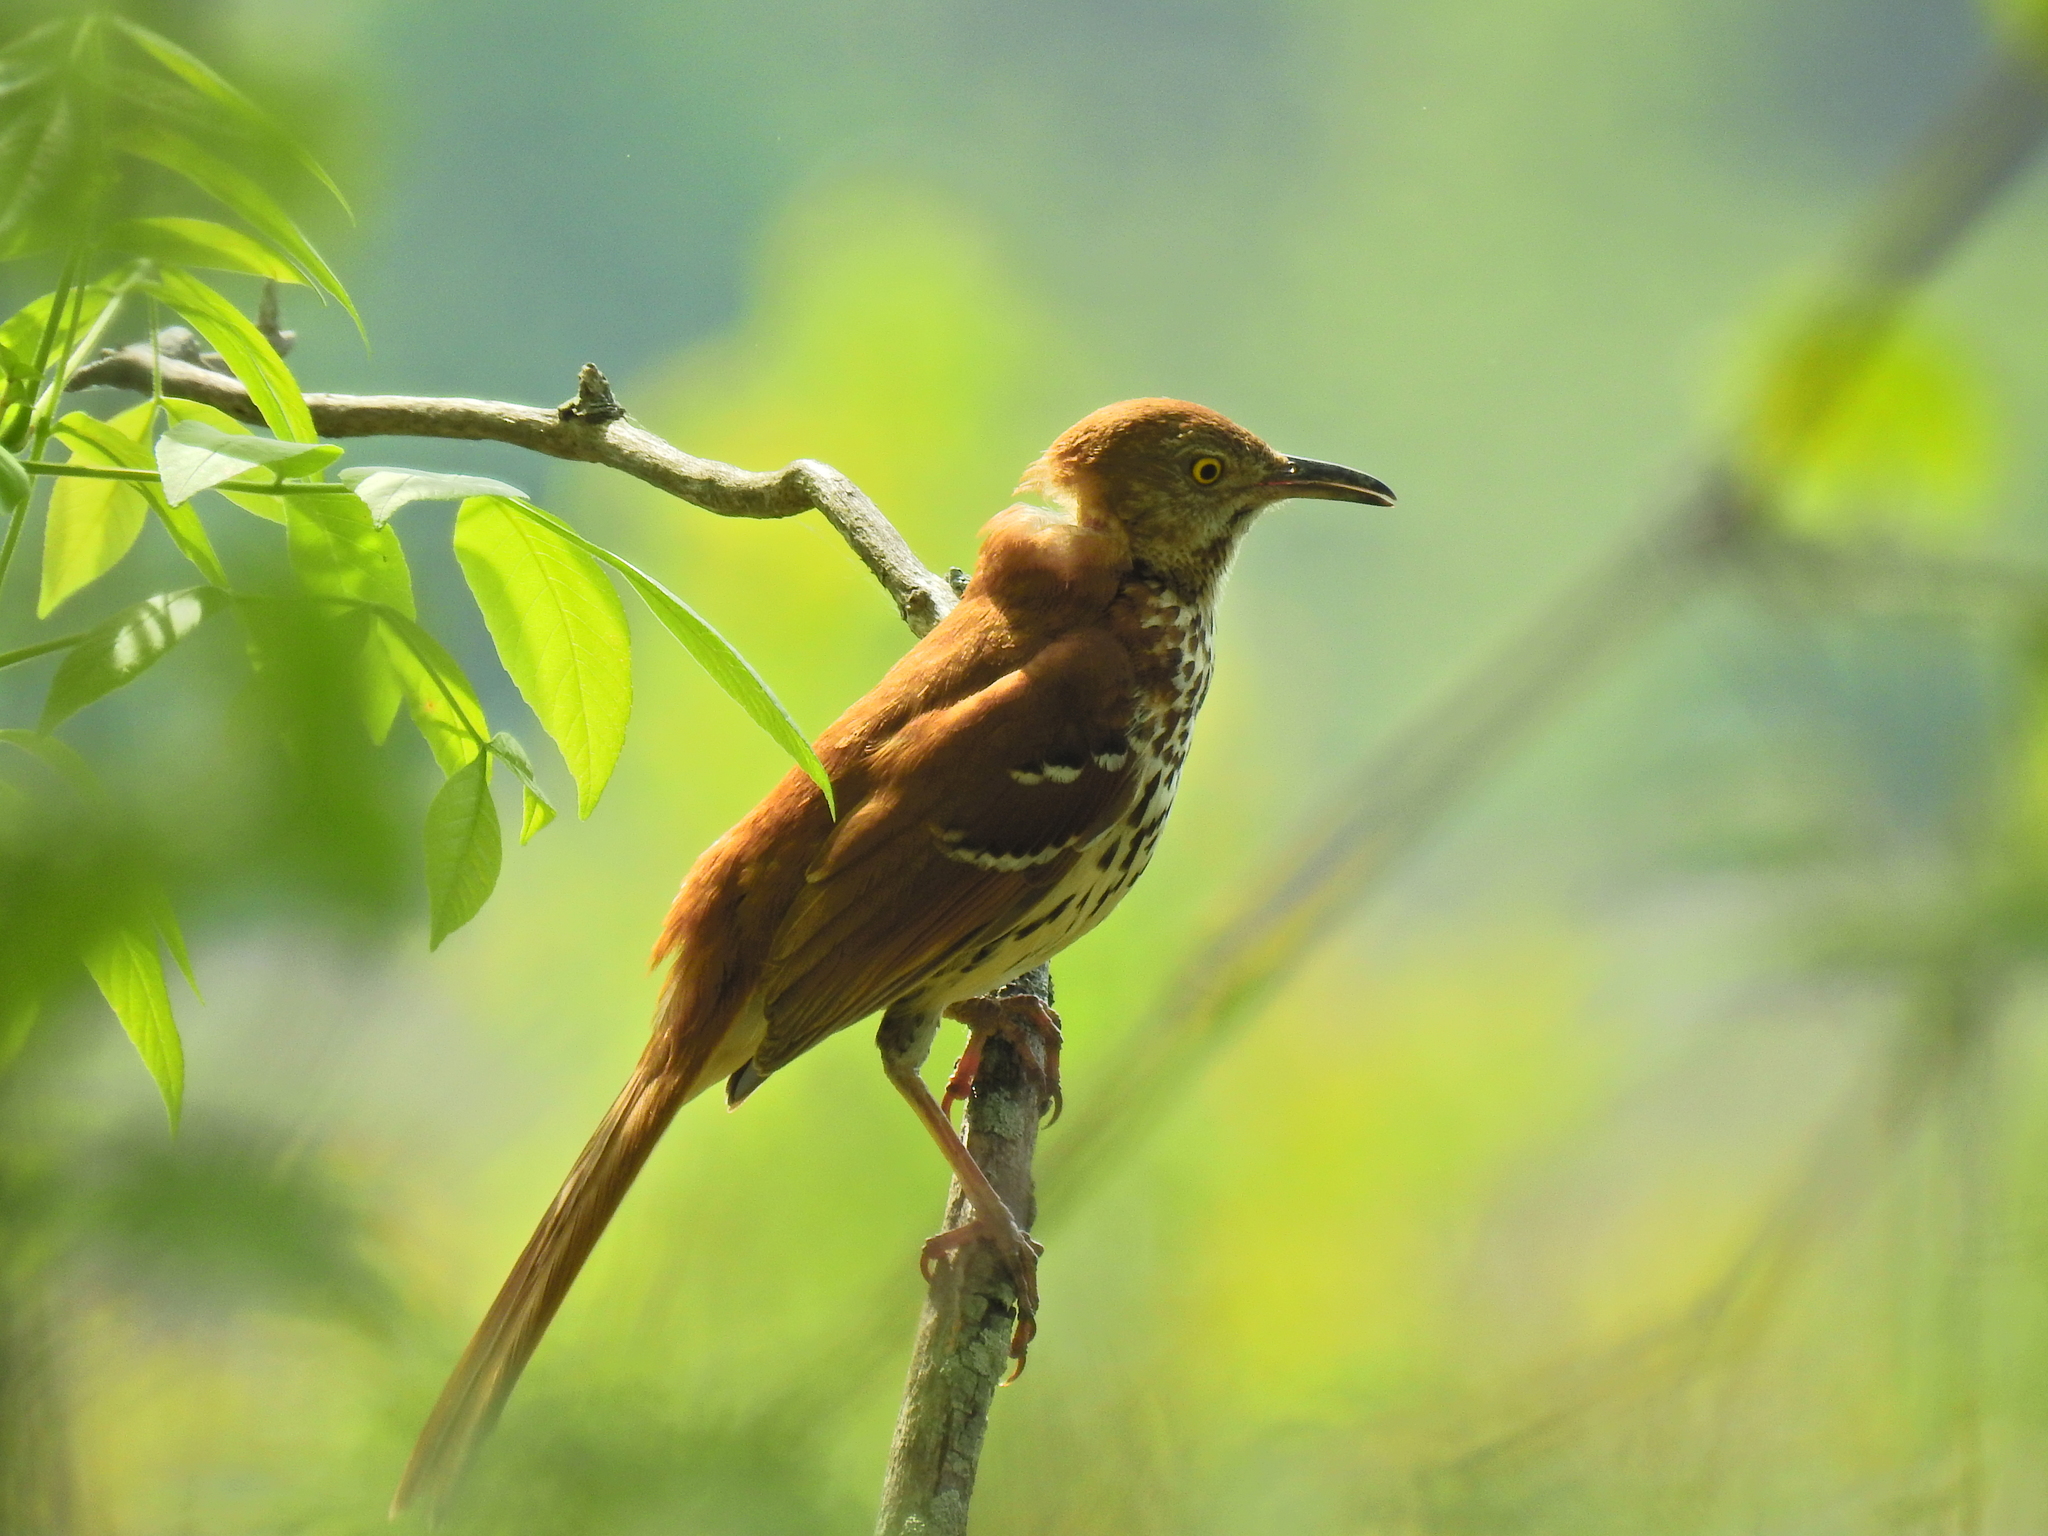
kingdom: Animalia
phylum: Chordata
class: Aves
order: Passeriformes
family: Mimidae
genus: Toxostoma
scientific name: Toxostoma rufum
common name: Brown thrasher
